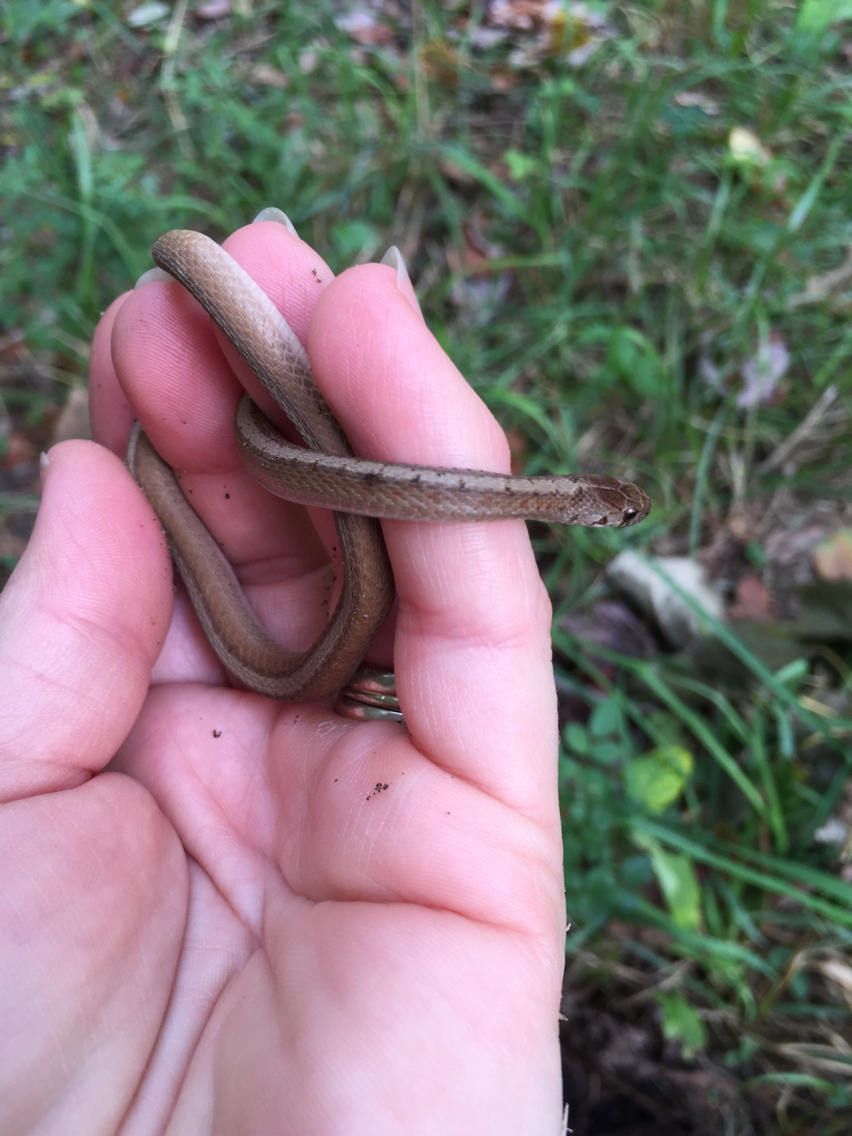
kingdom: Animalia
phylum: Chordata
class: Squamata
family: Colubridae
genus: Storeria
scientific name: Storeria dekayi
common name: (dekay’s) brown snake
